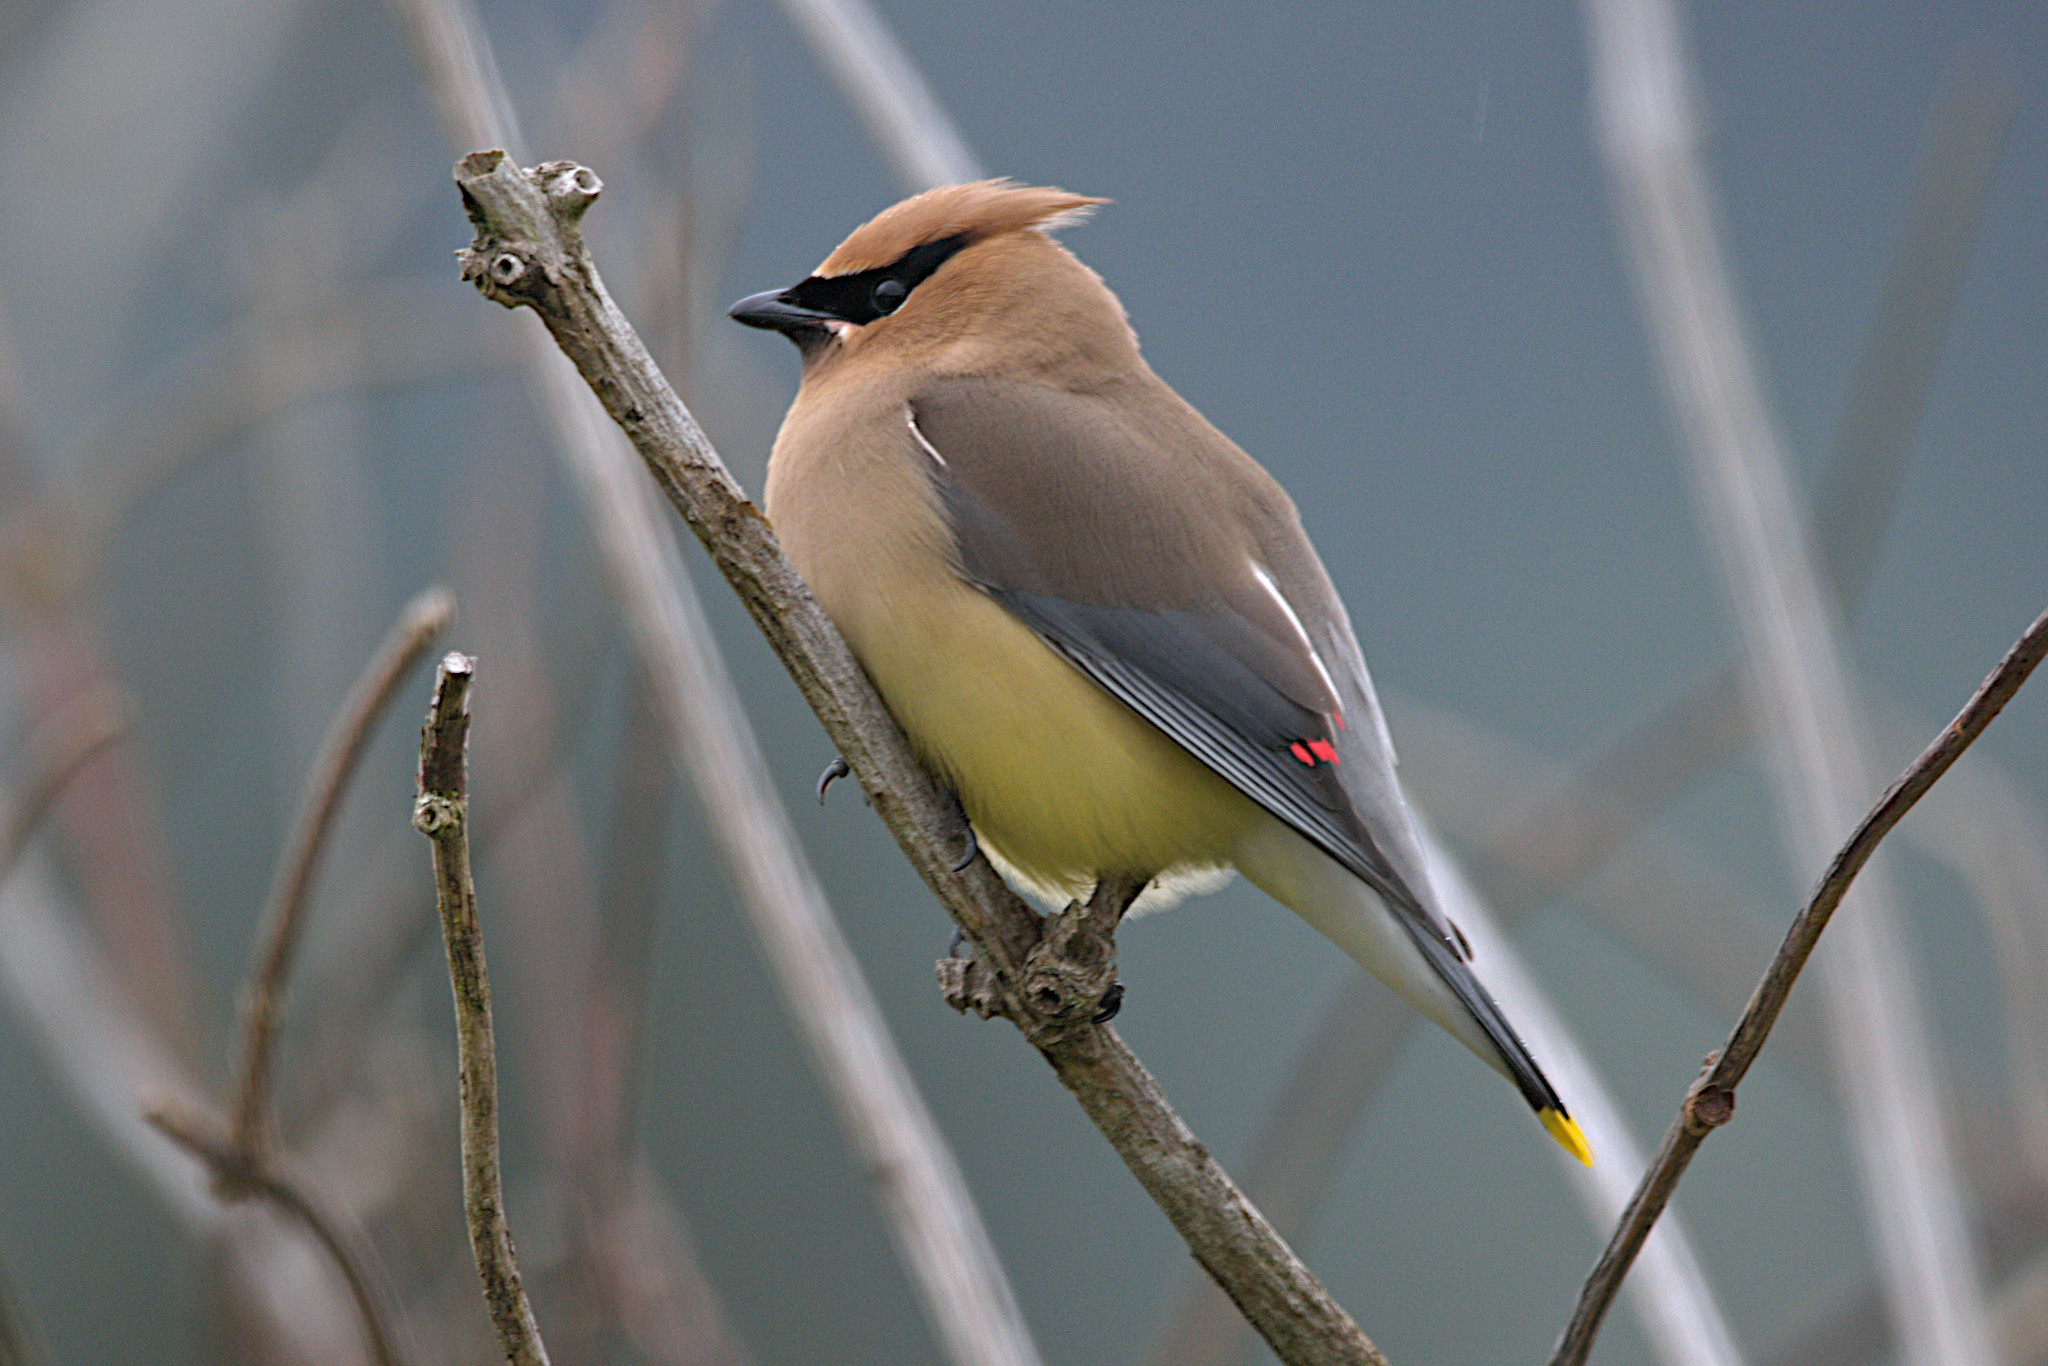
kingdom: Animalia
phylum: Chordata
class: Aves
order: Passeriformes
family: Bombycillidae
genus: Bombycilla
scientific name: Bombycilla cedrorum
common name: Cedar waxwing
